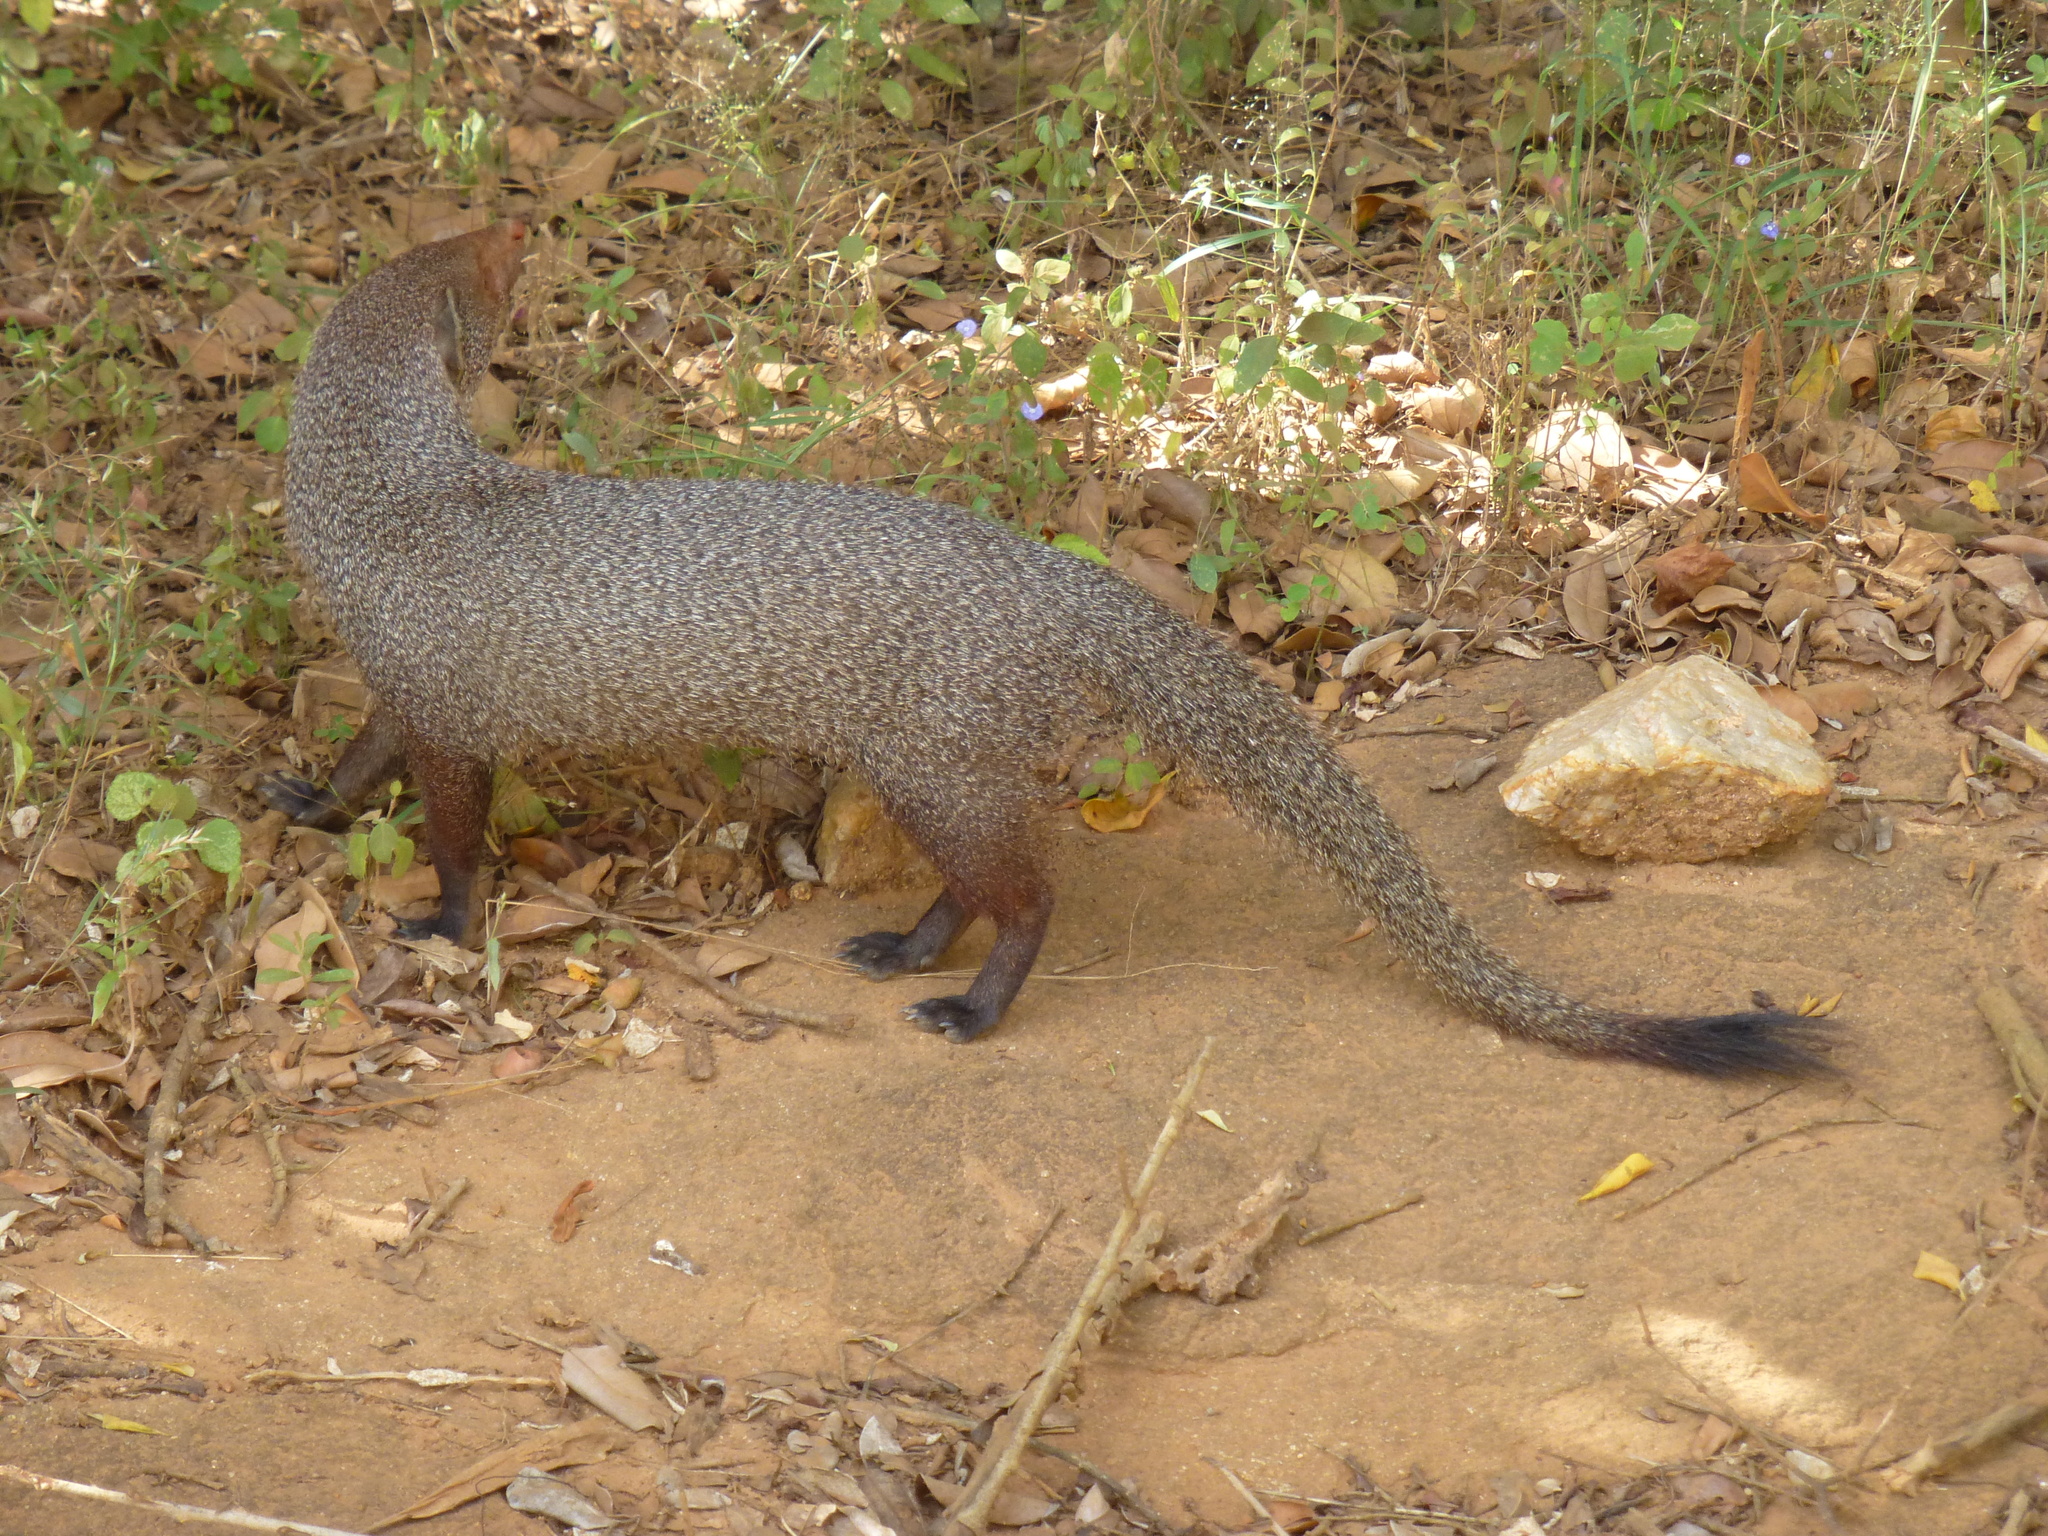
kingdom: Animalia
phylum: Chordata
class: Mammalia
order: Carnivora
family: Herpestidae
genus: Herpestes
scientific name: Herpestes smithii
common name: Ruddy mongoose
